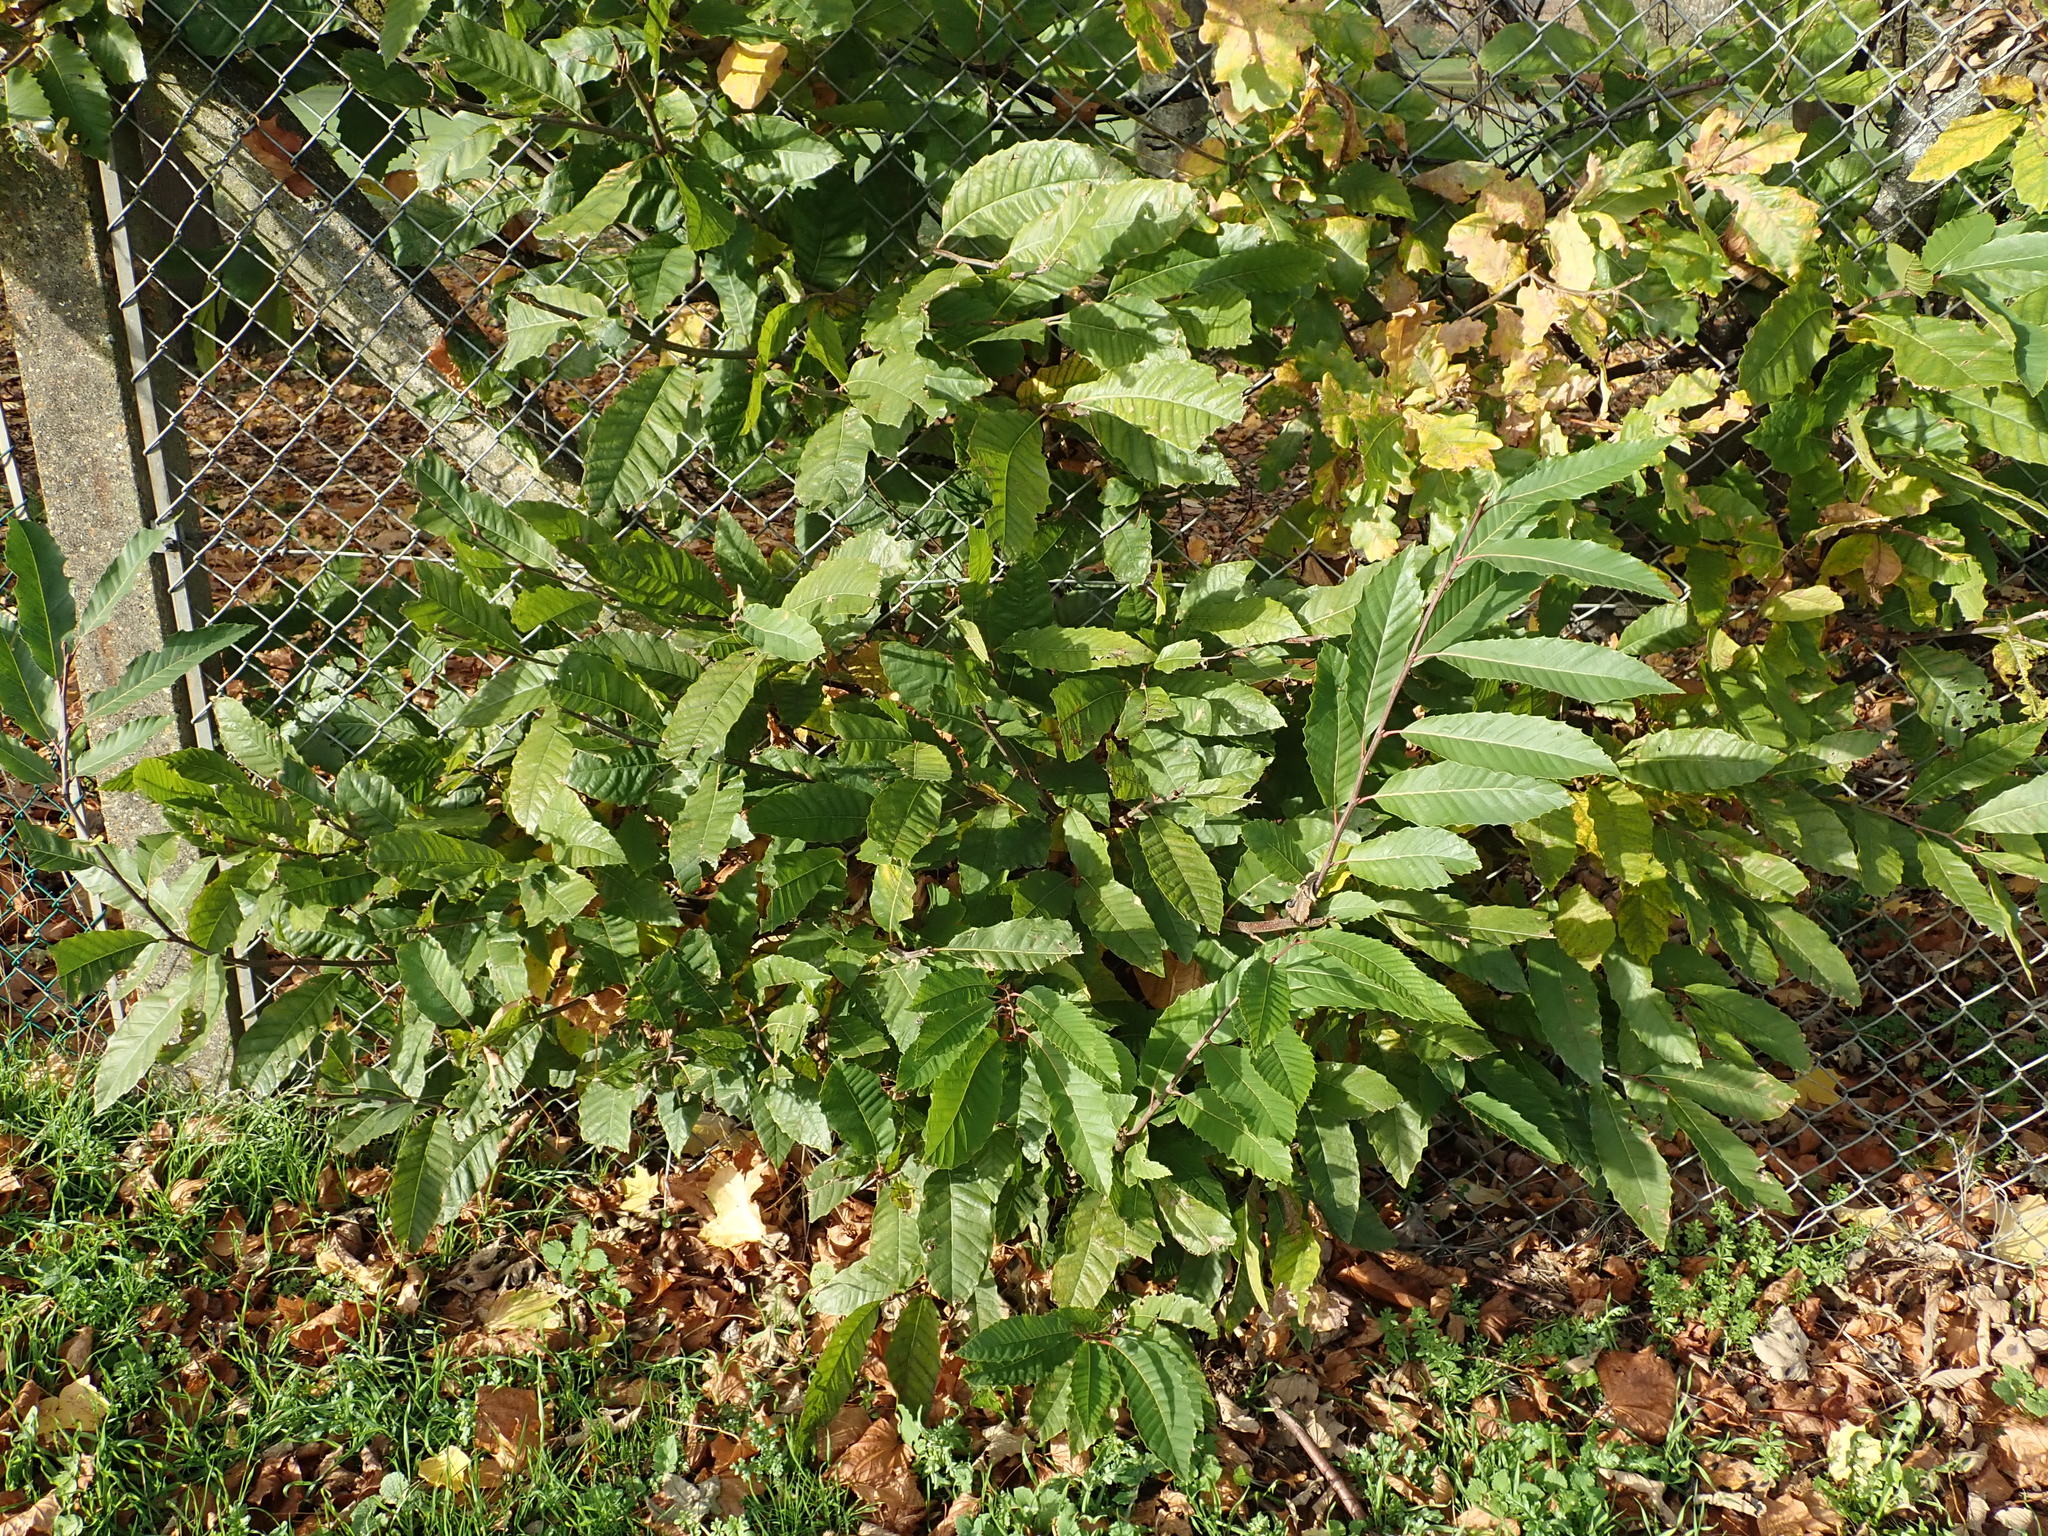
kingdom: Plantae
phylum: Tracheophyta
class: Magnoliopsida
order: Fagales
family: Fagaceae
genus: Castanea
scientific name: Castanea sativa
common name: Sweet chestnut
